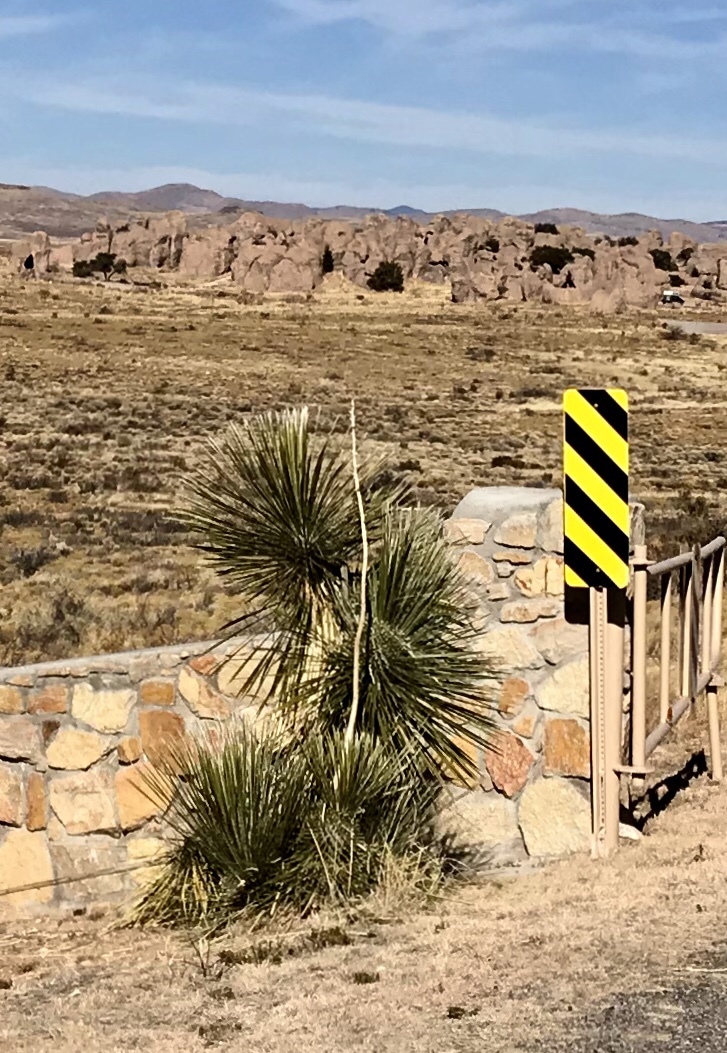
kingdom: Plantae
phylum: Tracheophyta
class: Liliopsida
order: Asparagales
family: Asparagaceae
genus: Yucca
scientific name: Yucca elata
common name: Palmella
